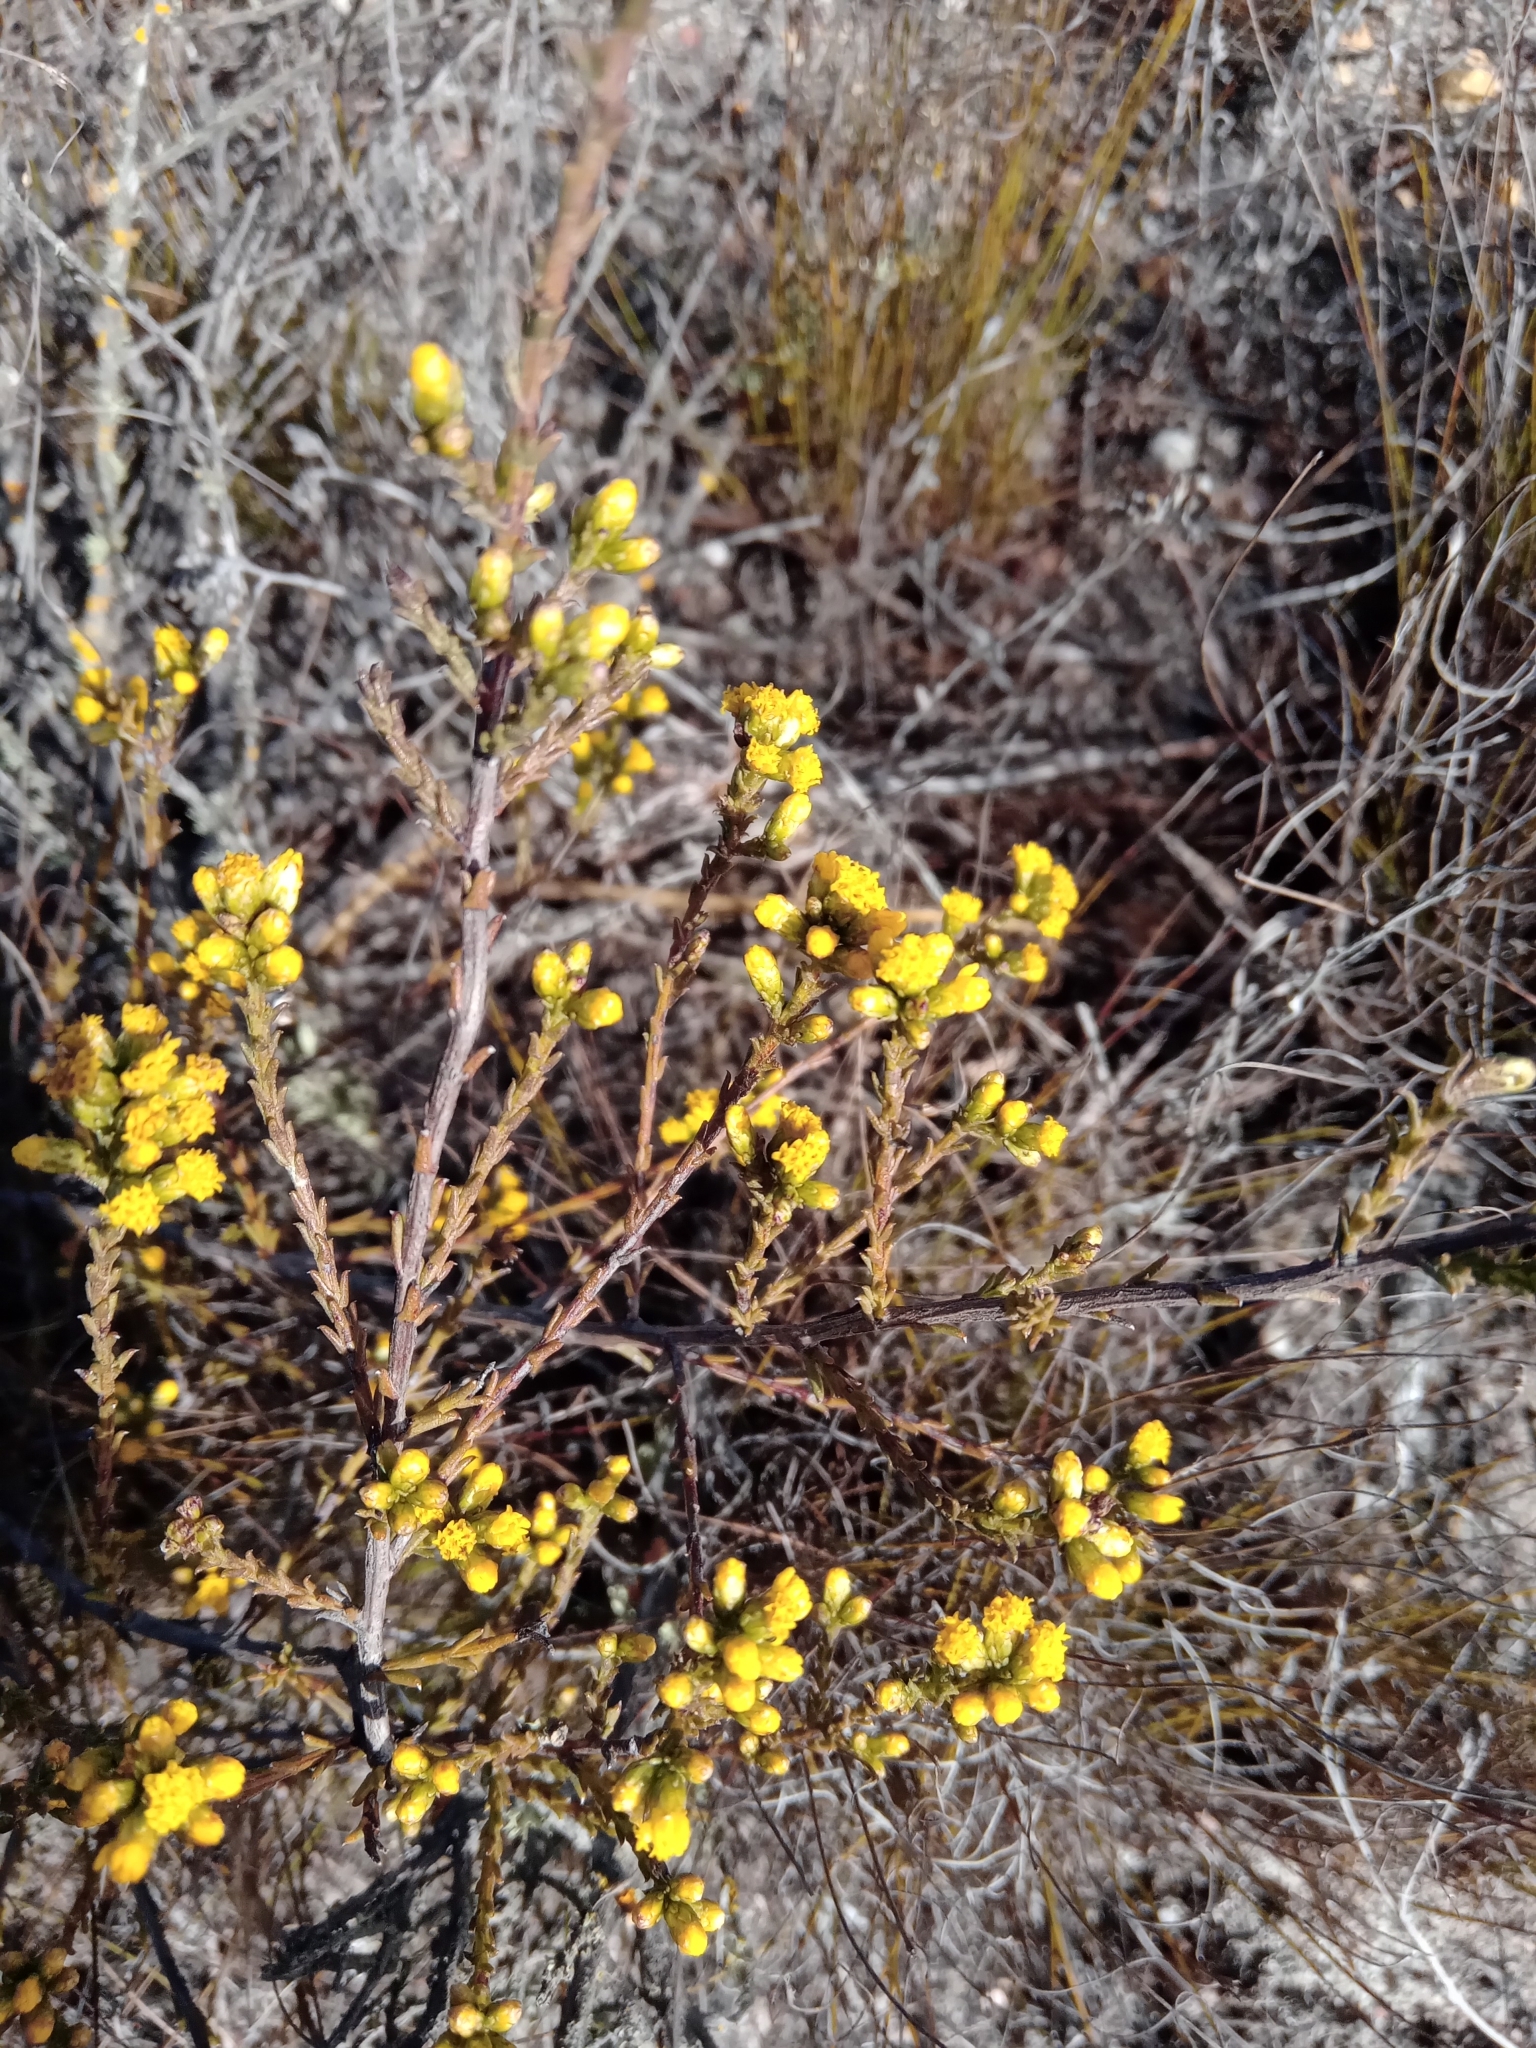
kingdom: Plantae
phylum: Tracheophyta
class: Magnoliopsida
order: Asterales
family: Asteraceae
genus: Marasmodes
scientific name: Marasmodes dummeri
